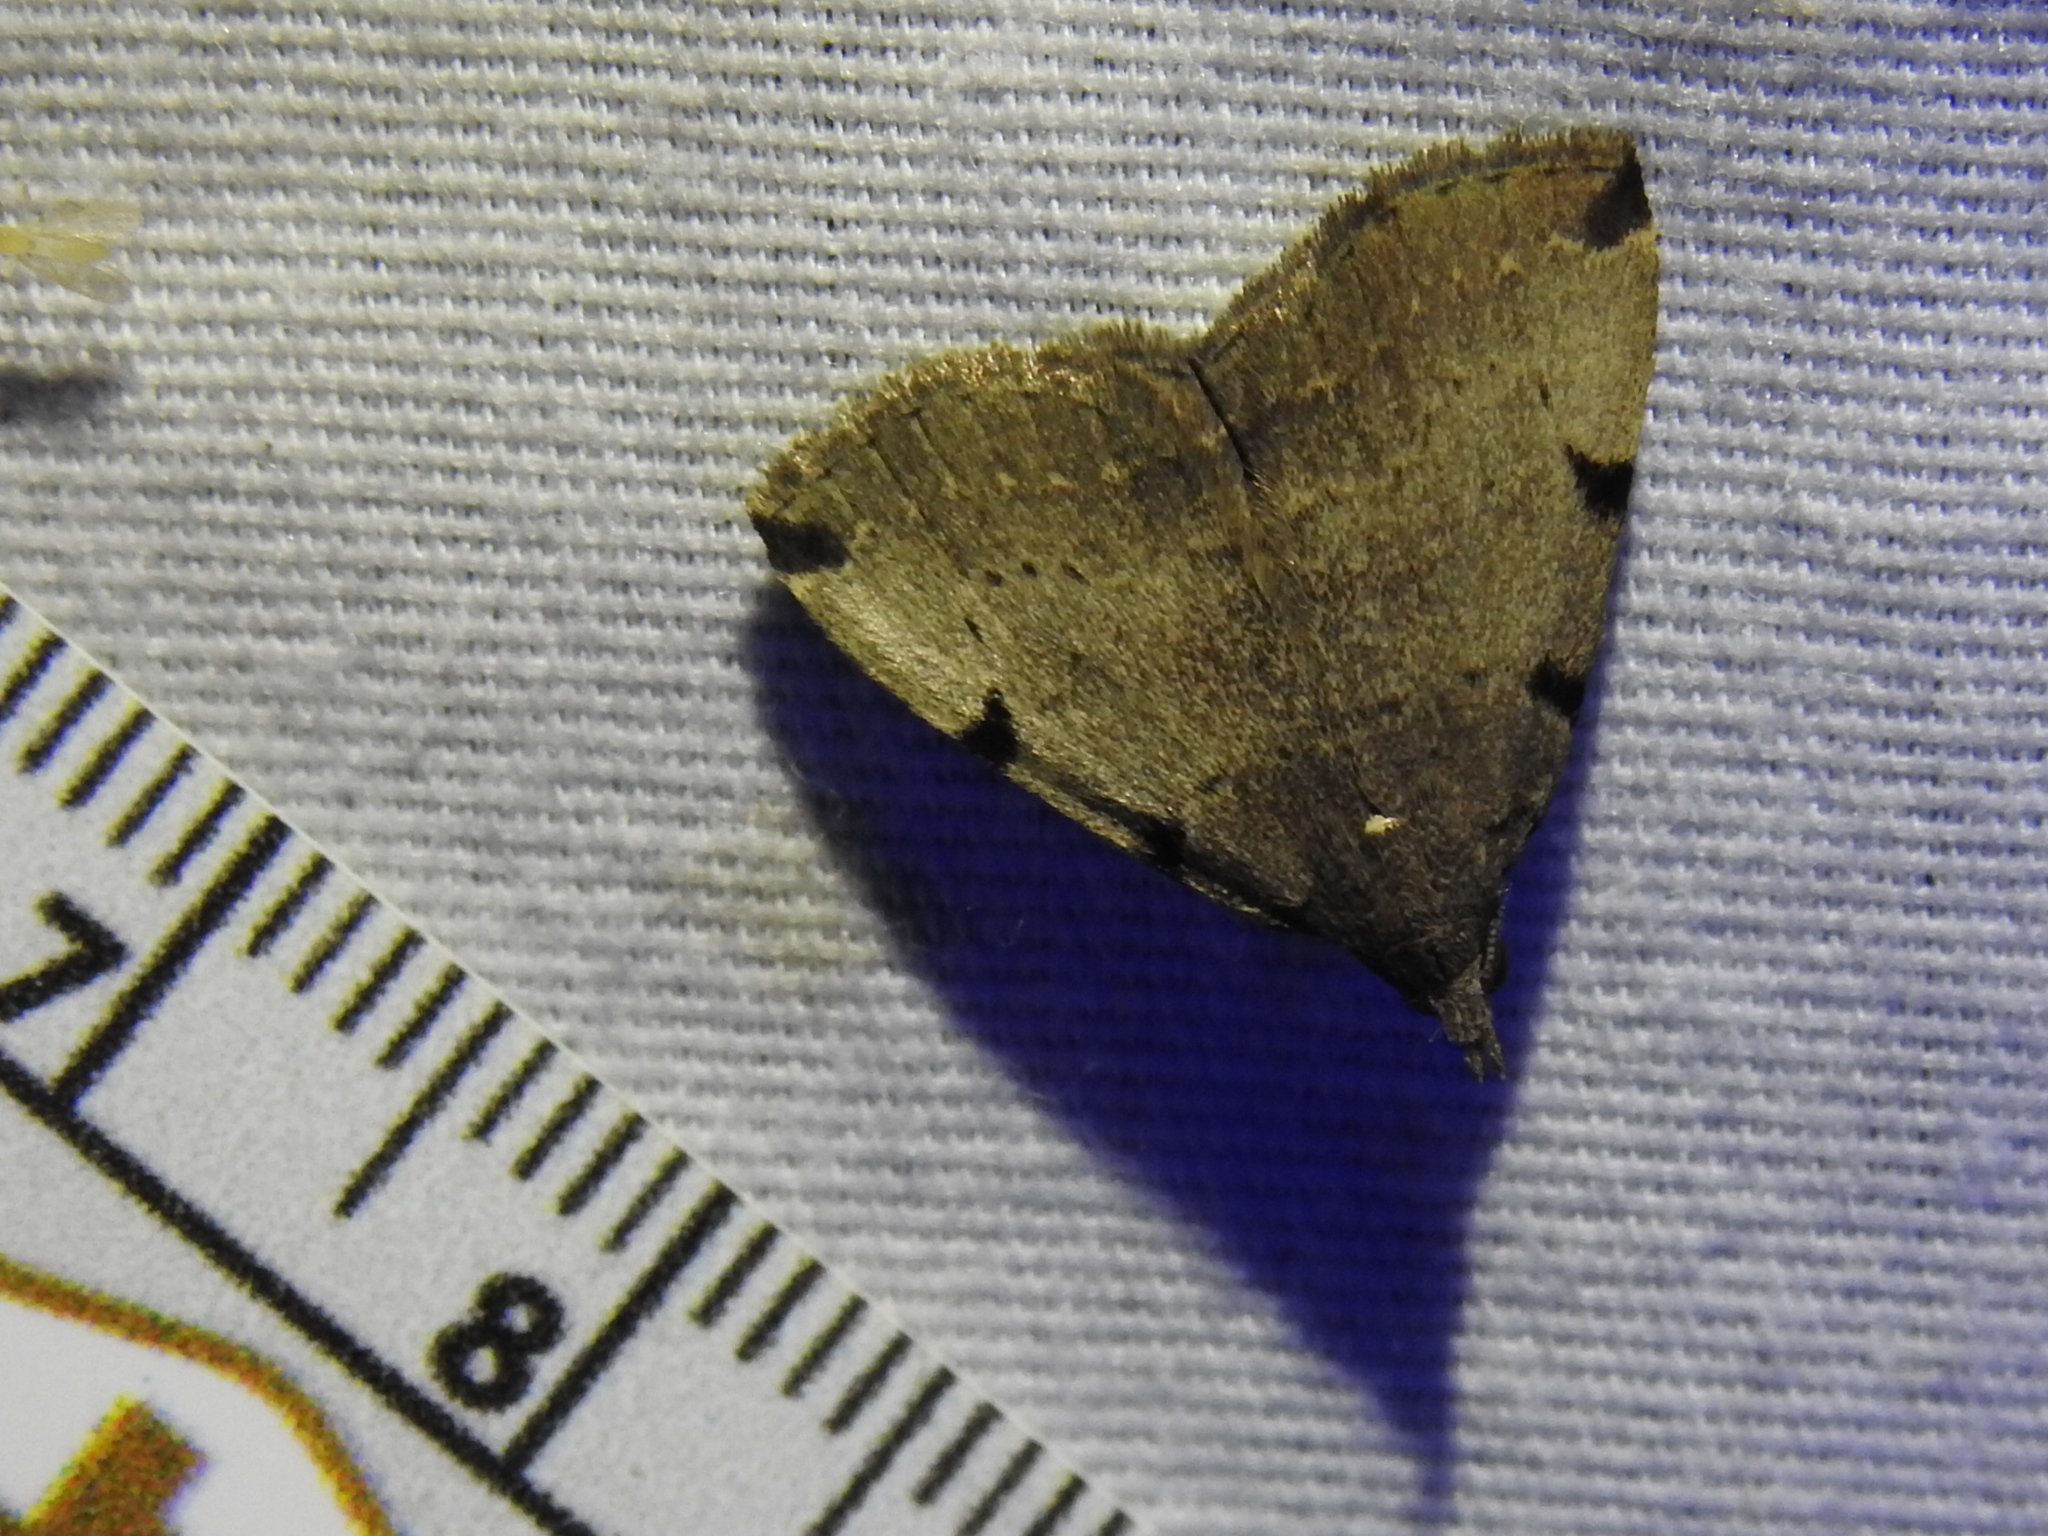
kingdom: Animalia
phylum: Arthropoda
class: Insecta
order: Lepidoptera
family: Erebidae
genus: Zanclognatha
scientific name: Zanclognatha lituralis
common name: Lettered fan-foot
